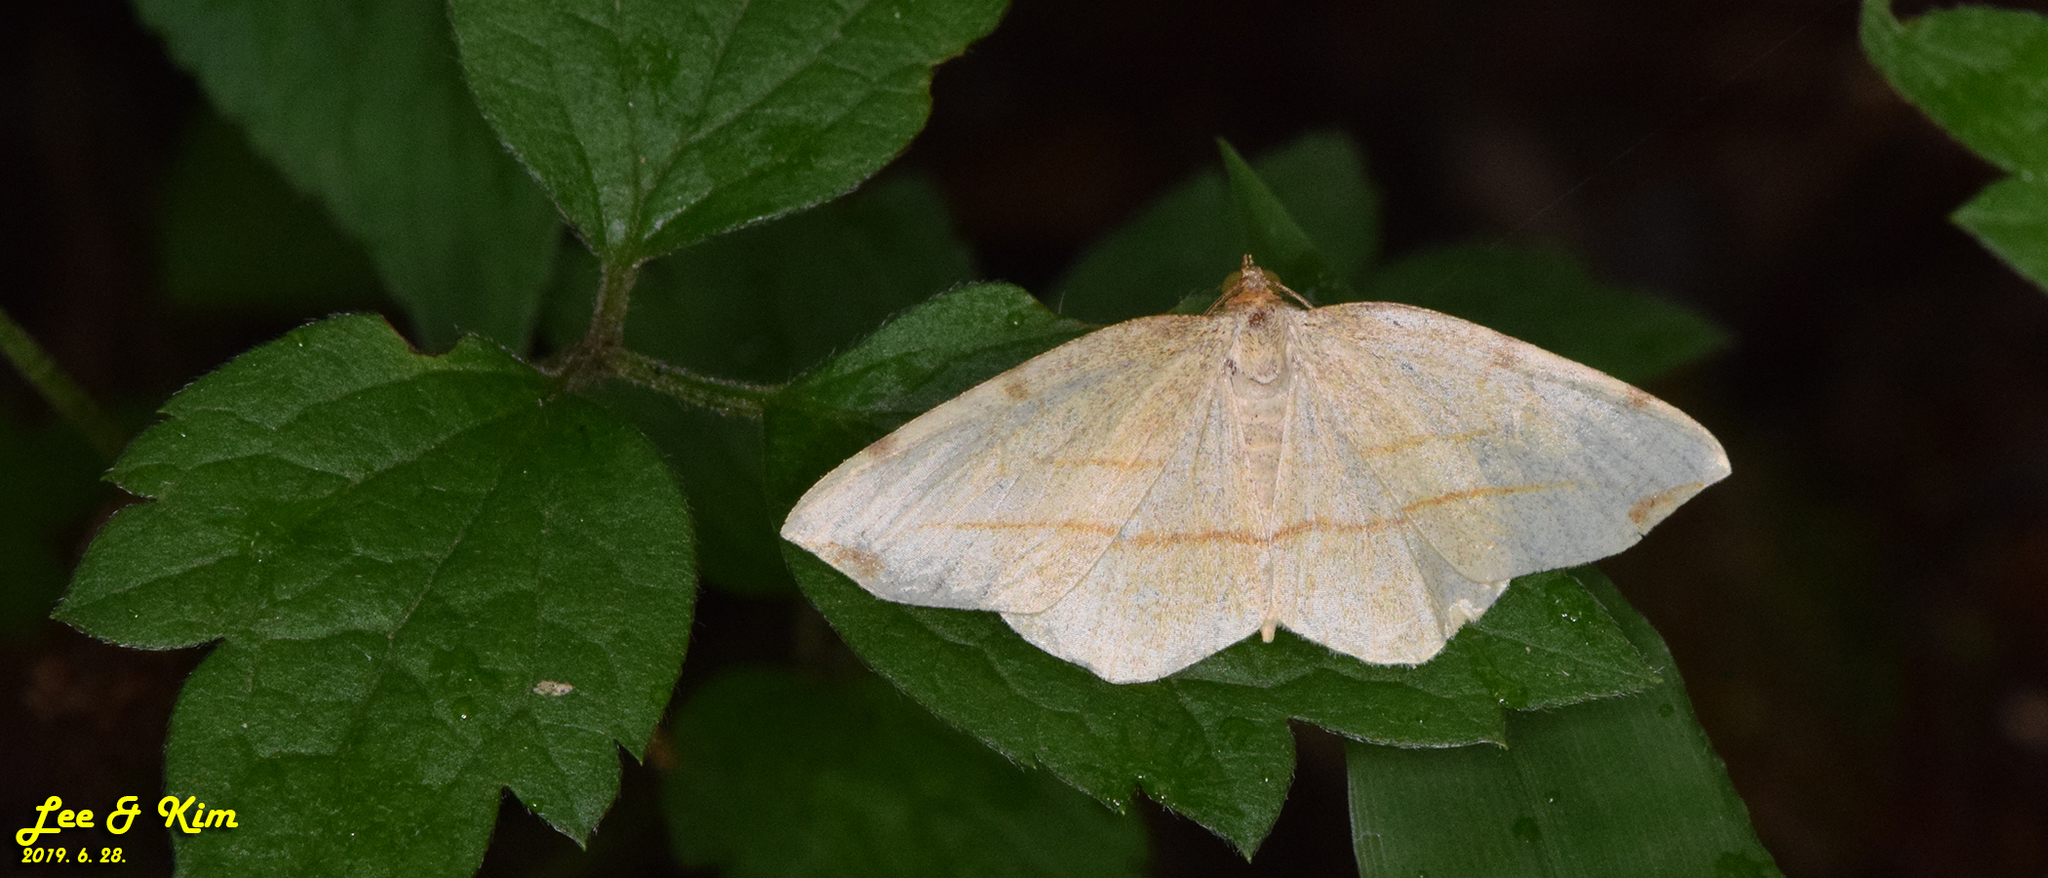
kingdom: Animalia
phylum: Arthropoda
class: Insecta
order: Lepidoptera
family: Geometridae
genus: Spilopera
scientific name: Spilopera debilis
